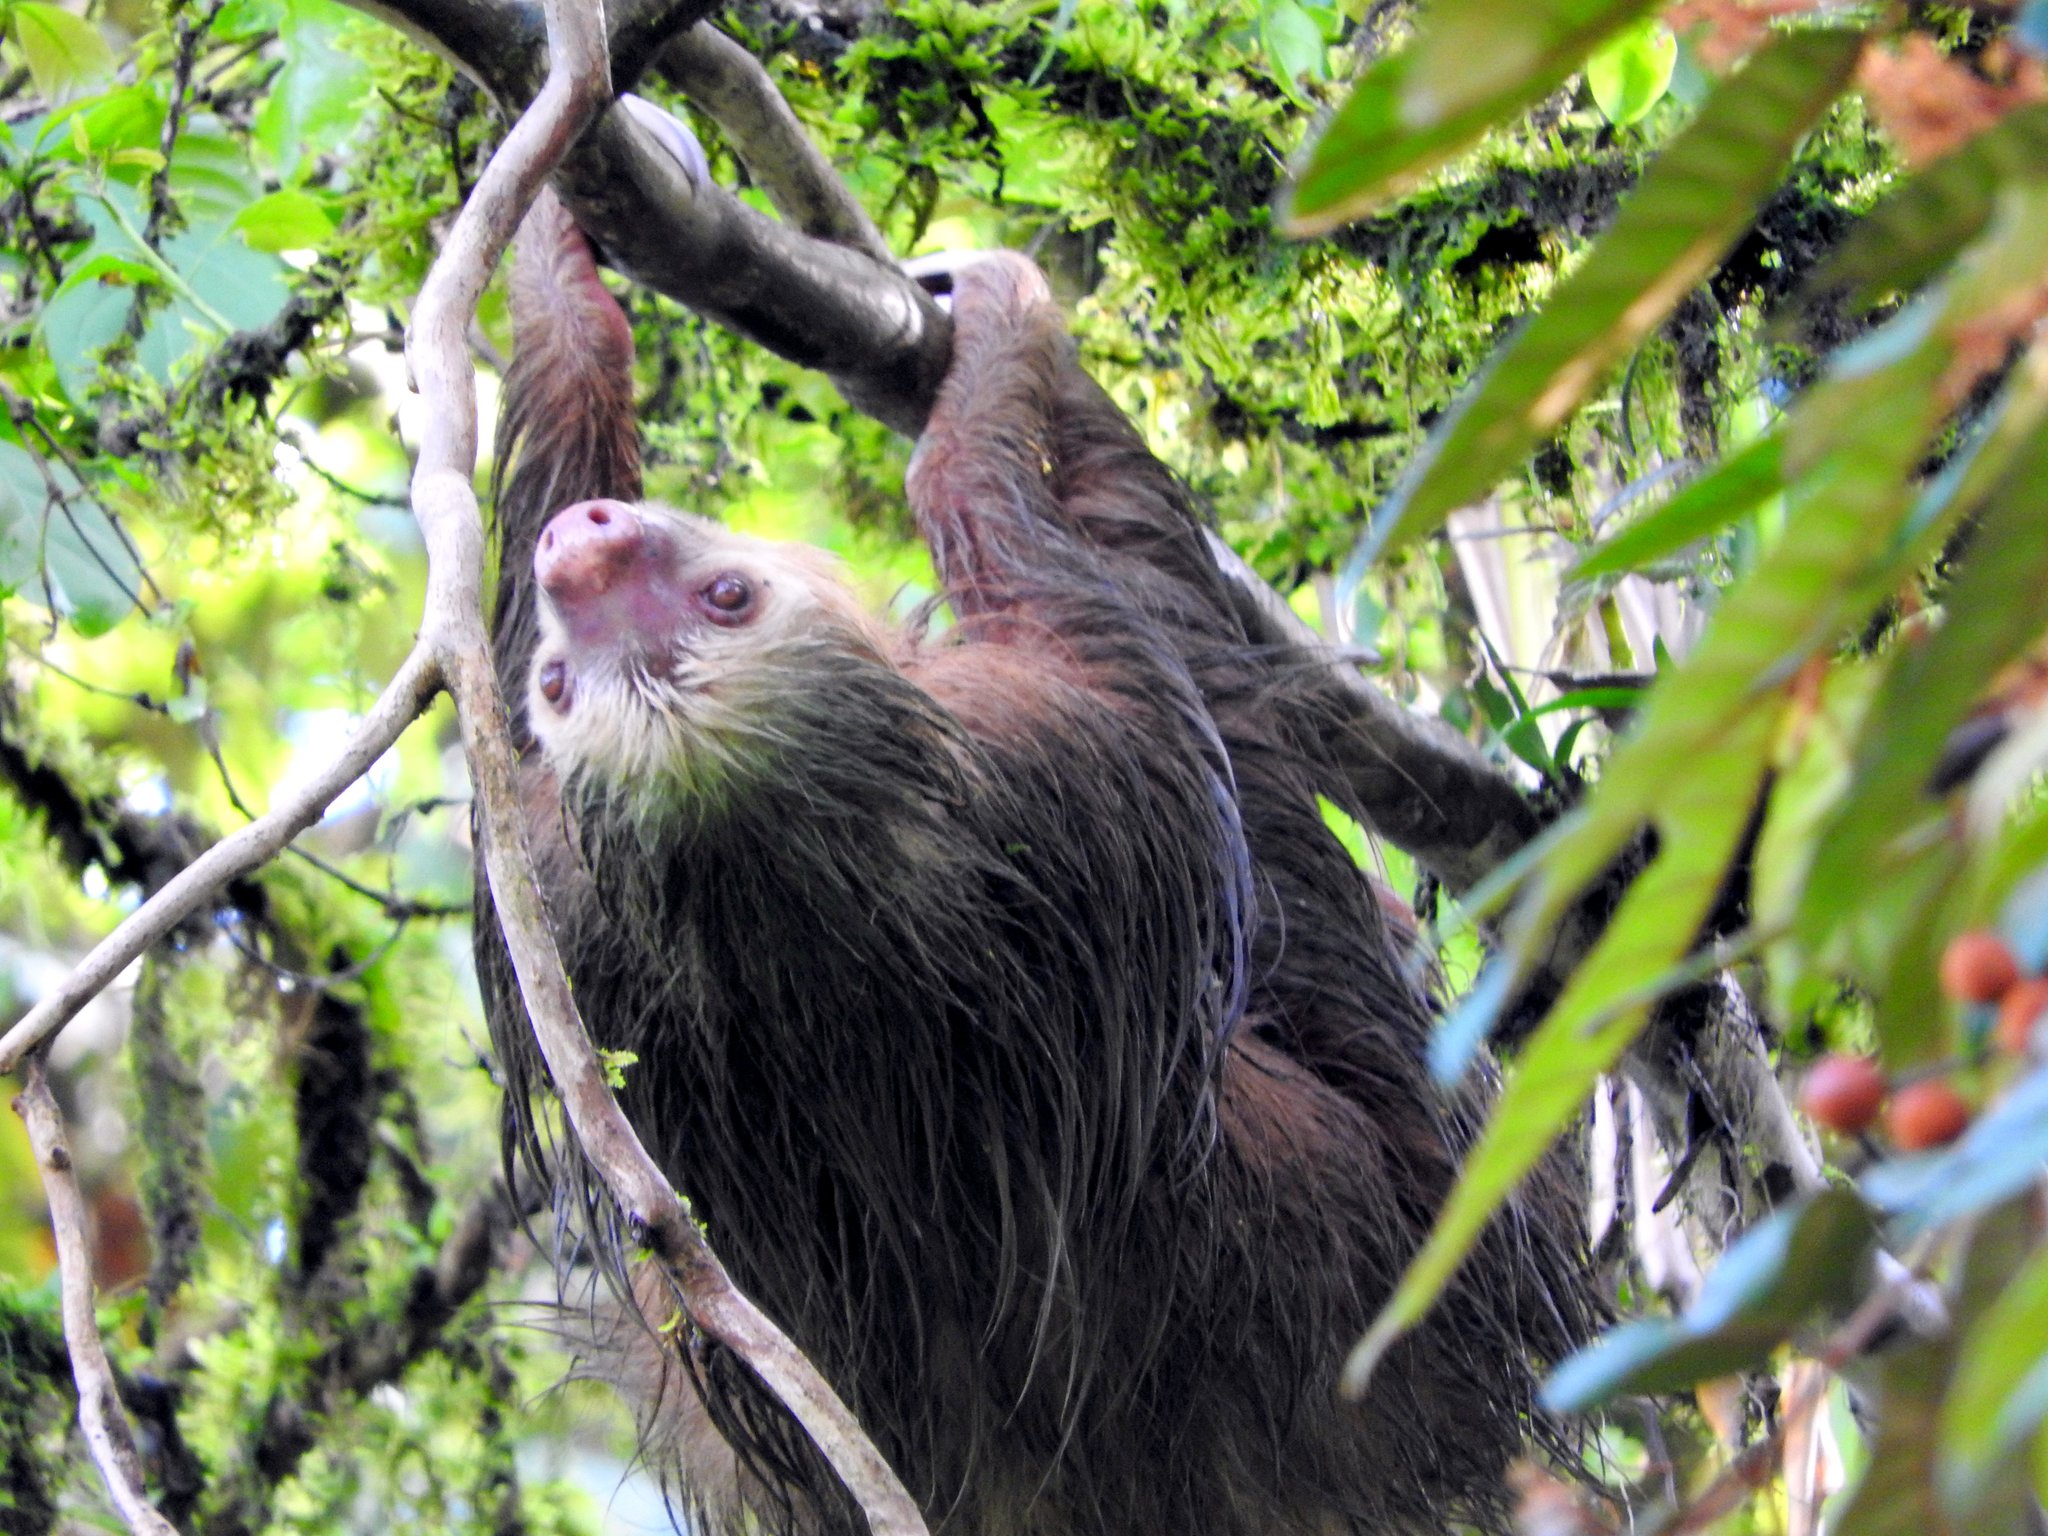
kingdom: Animalia
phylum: Chordata
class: Mammalia
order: Pilosa
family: Megalonychidae
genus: Choloepus
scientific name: Choloepus hoffmanni
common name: Hoffmann's two-toed sloth
